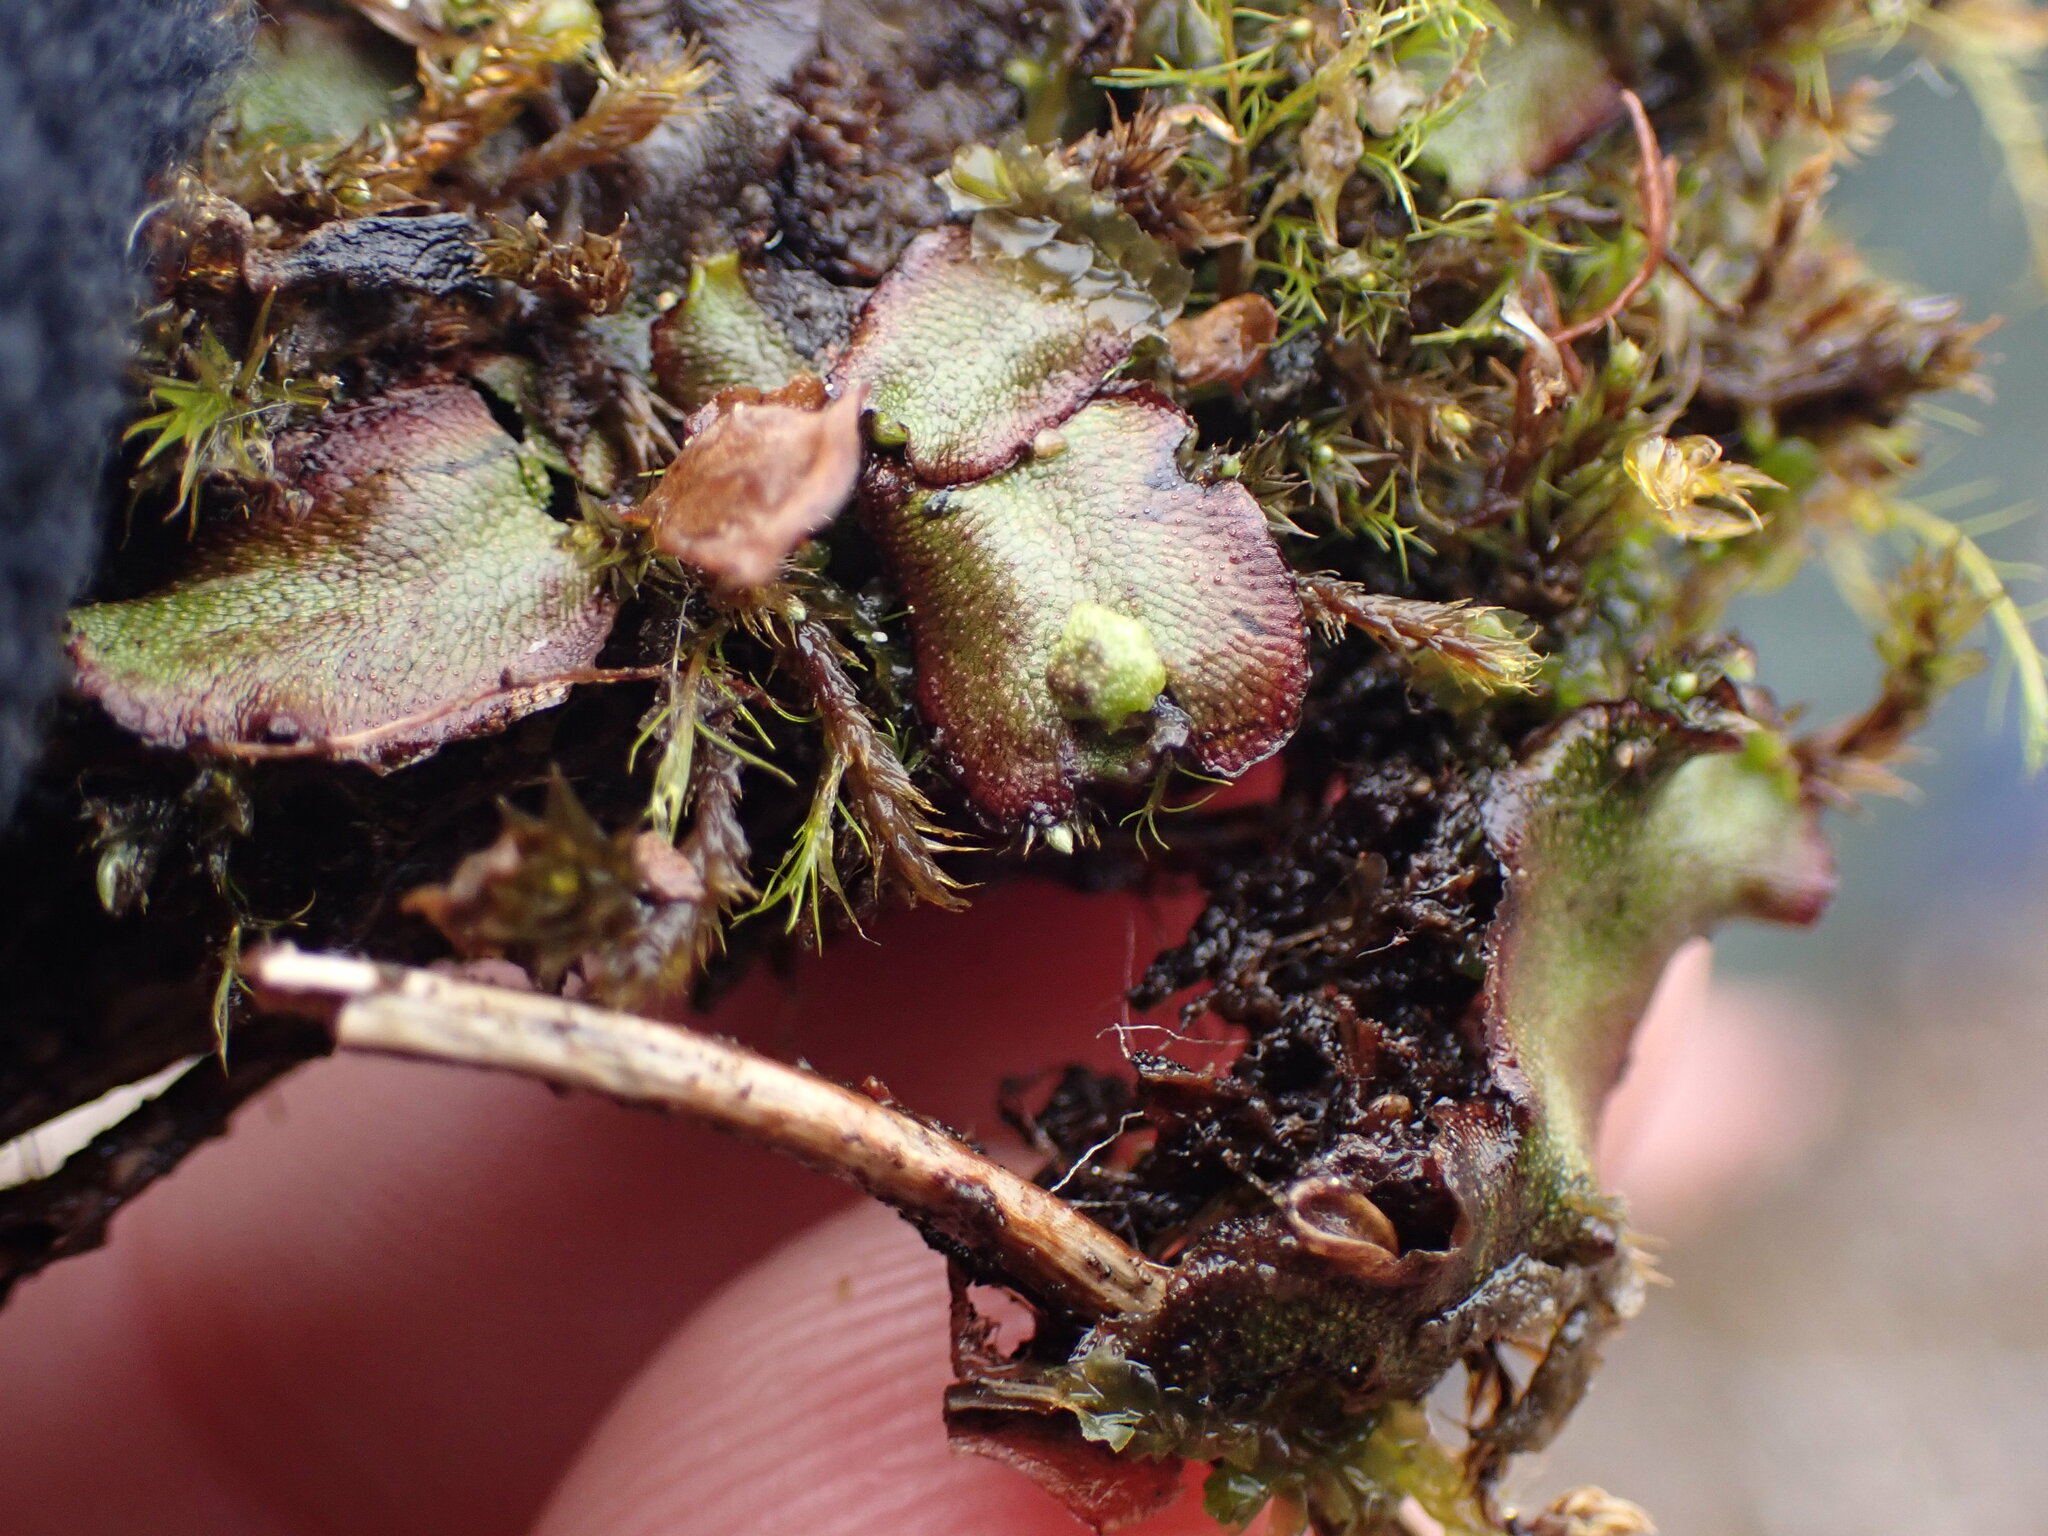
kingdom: Plantae
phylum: Marchantiophyta
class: Marchantiopsida
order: Marchantiales
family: Marchantiaceae
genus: Marchantia
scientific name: Marchantia quadrata
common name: Narrow mushroom-headed liverwort
